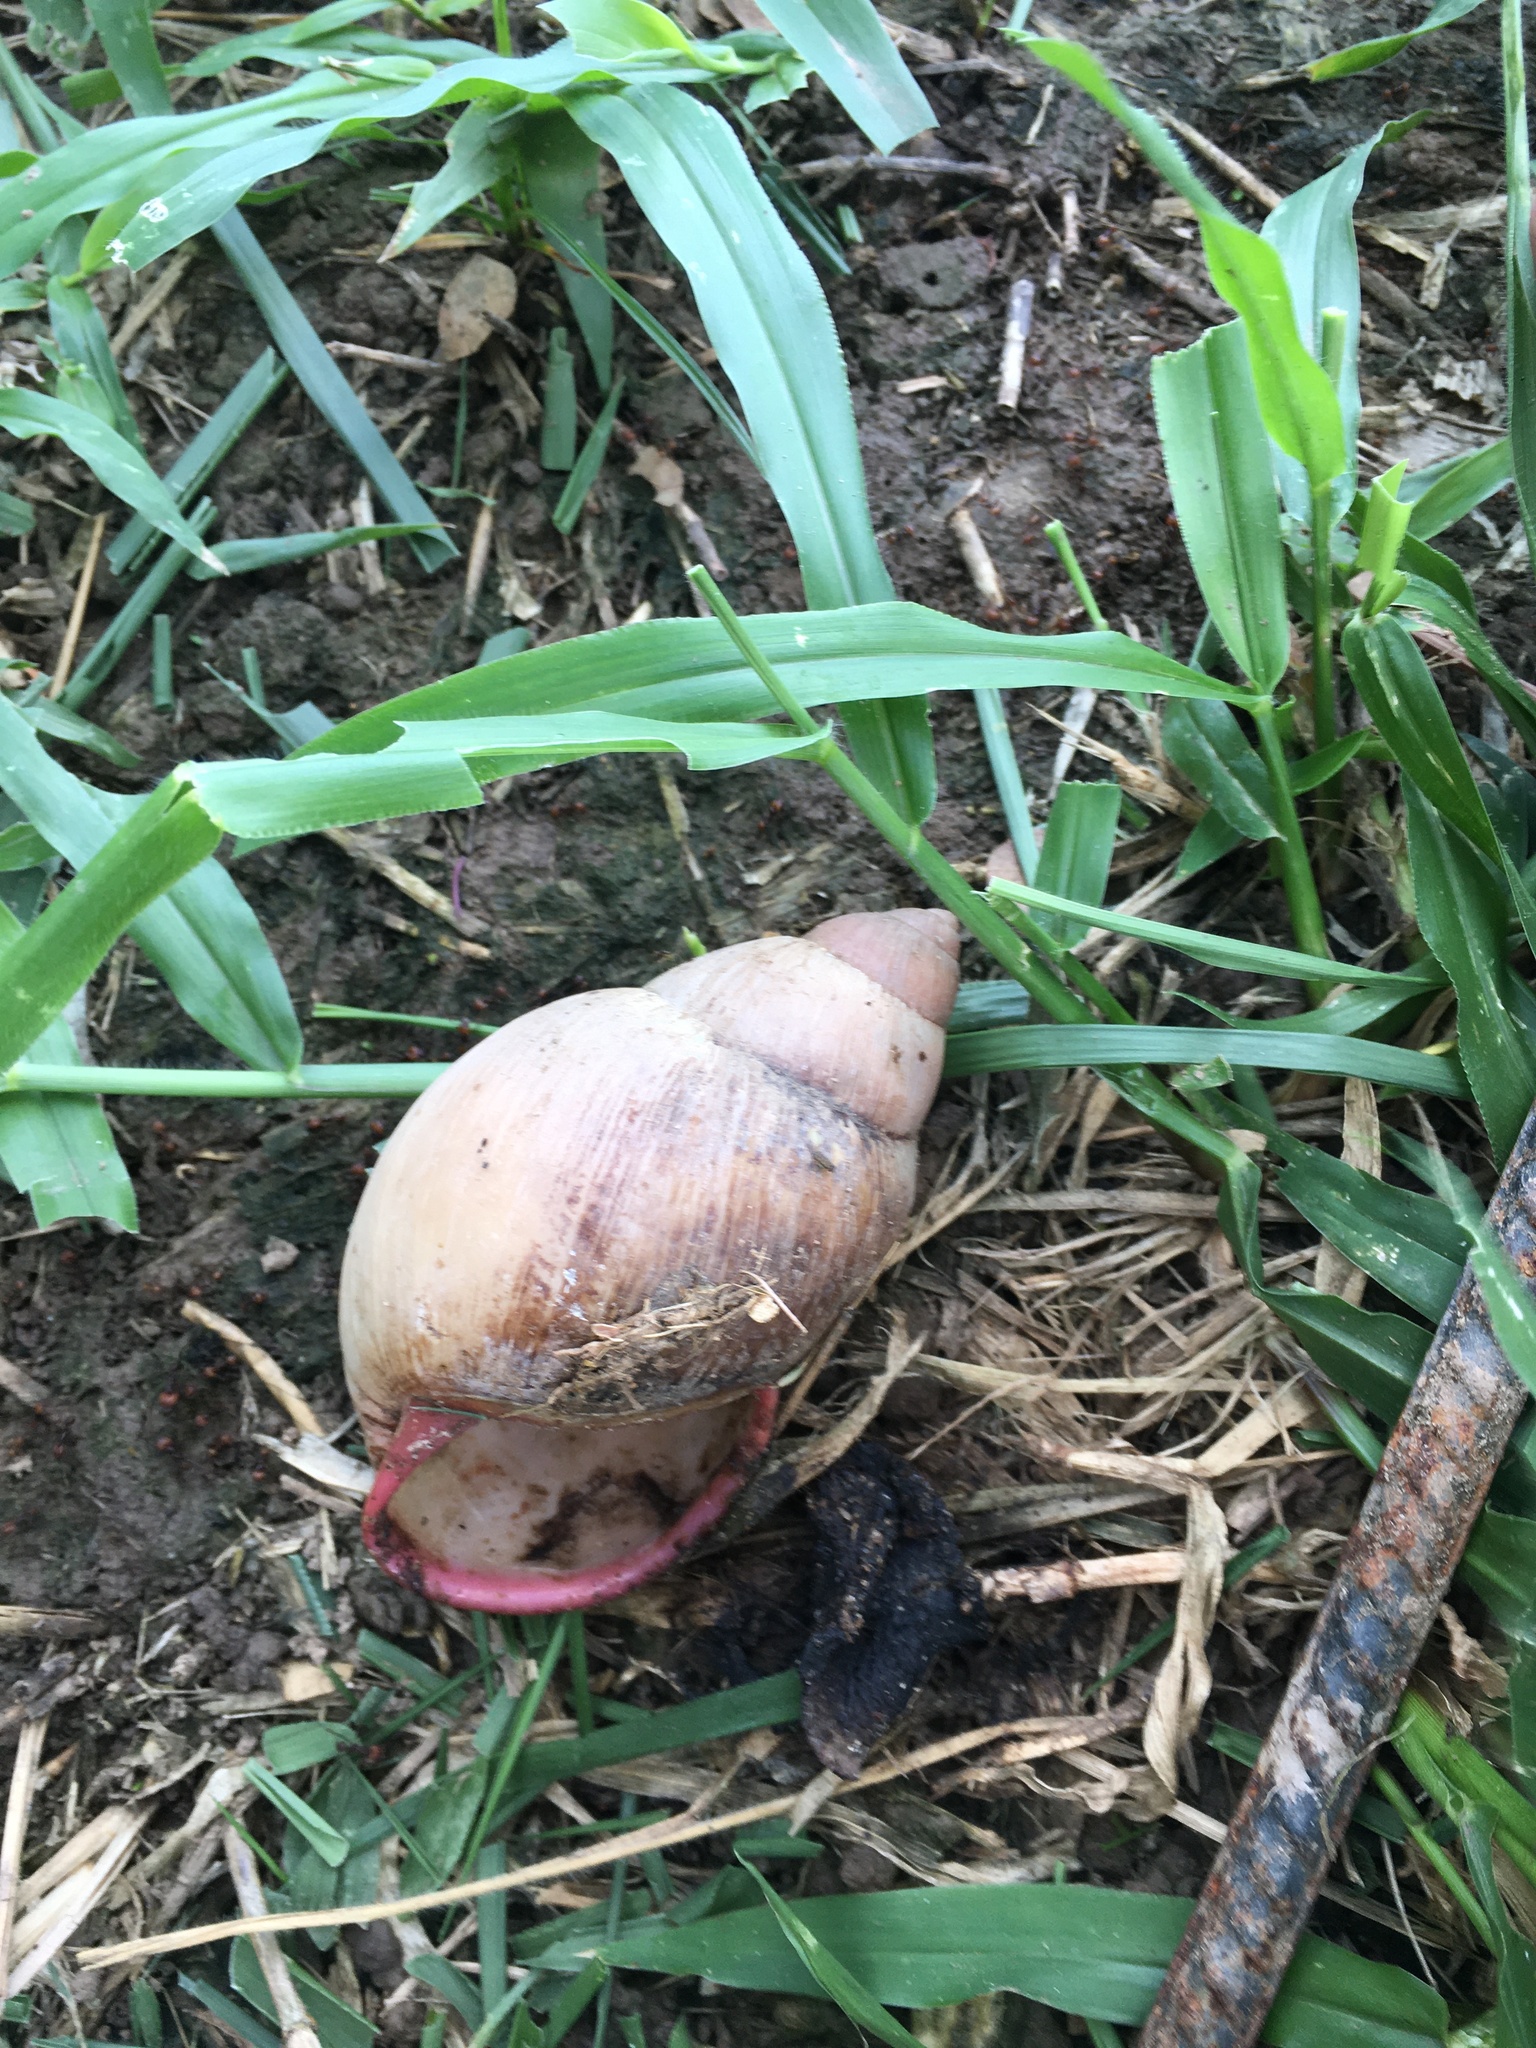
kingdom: Animalia
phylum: Mollusca
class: Gastropoda
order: Stylommatophora
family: Strophocheilidae
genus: Megalobulimus
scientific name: Megalobulimus oblongus
